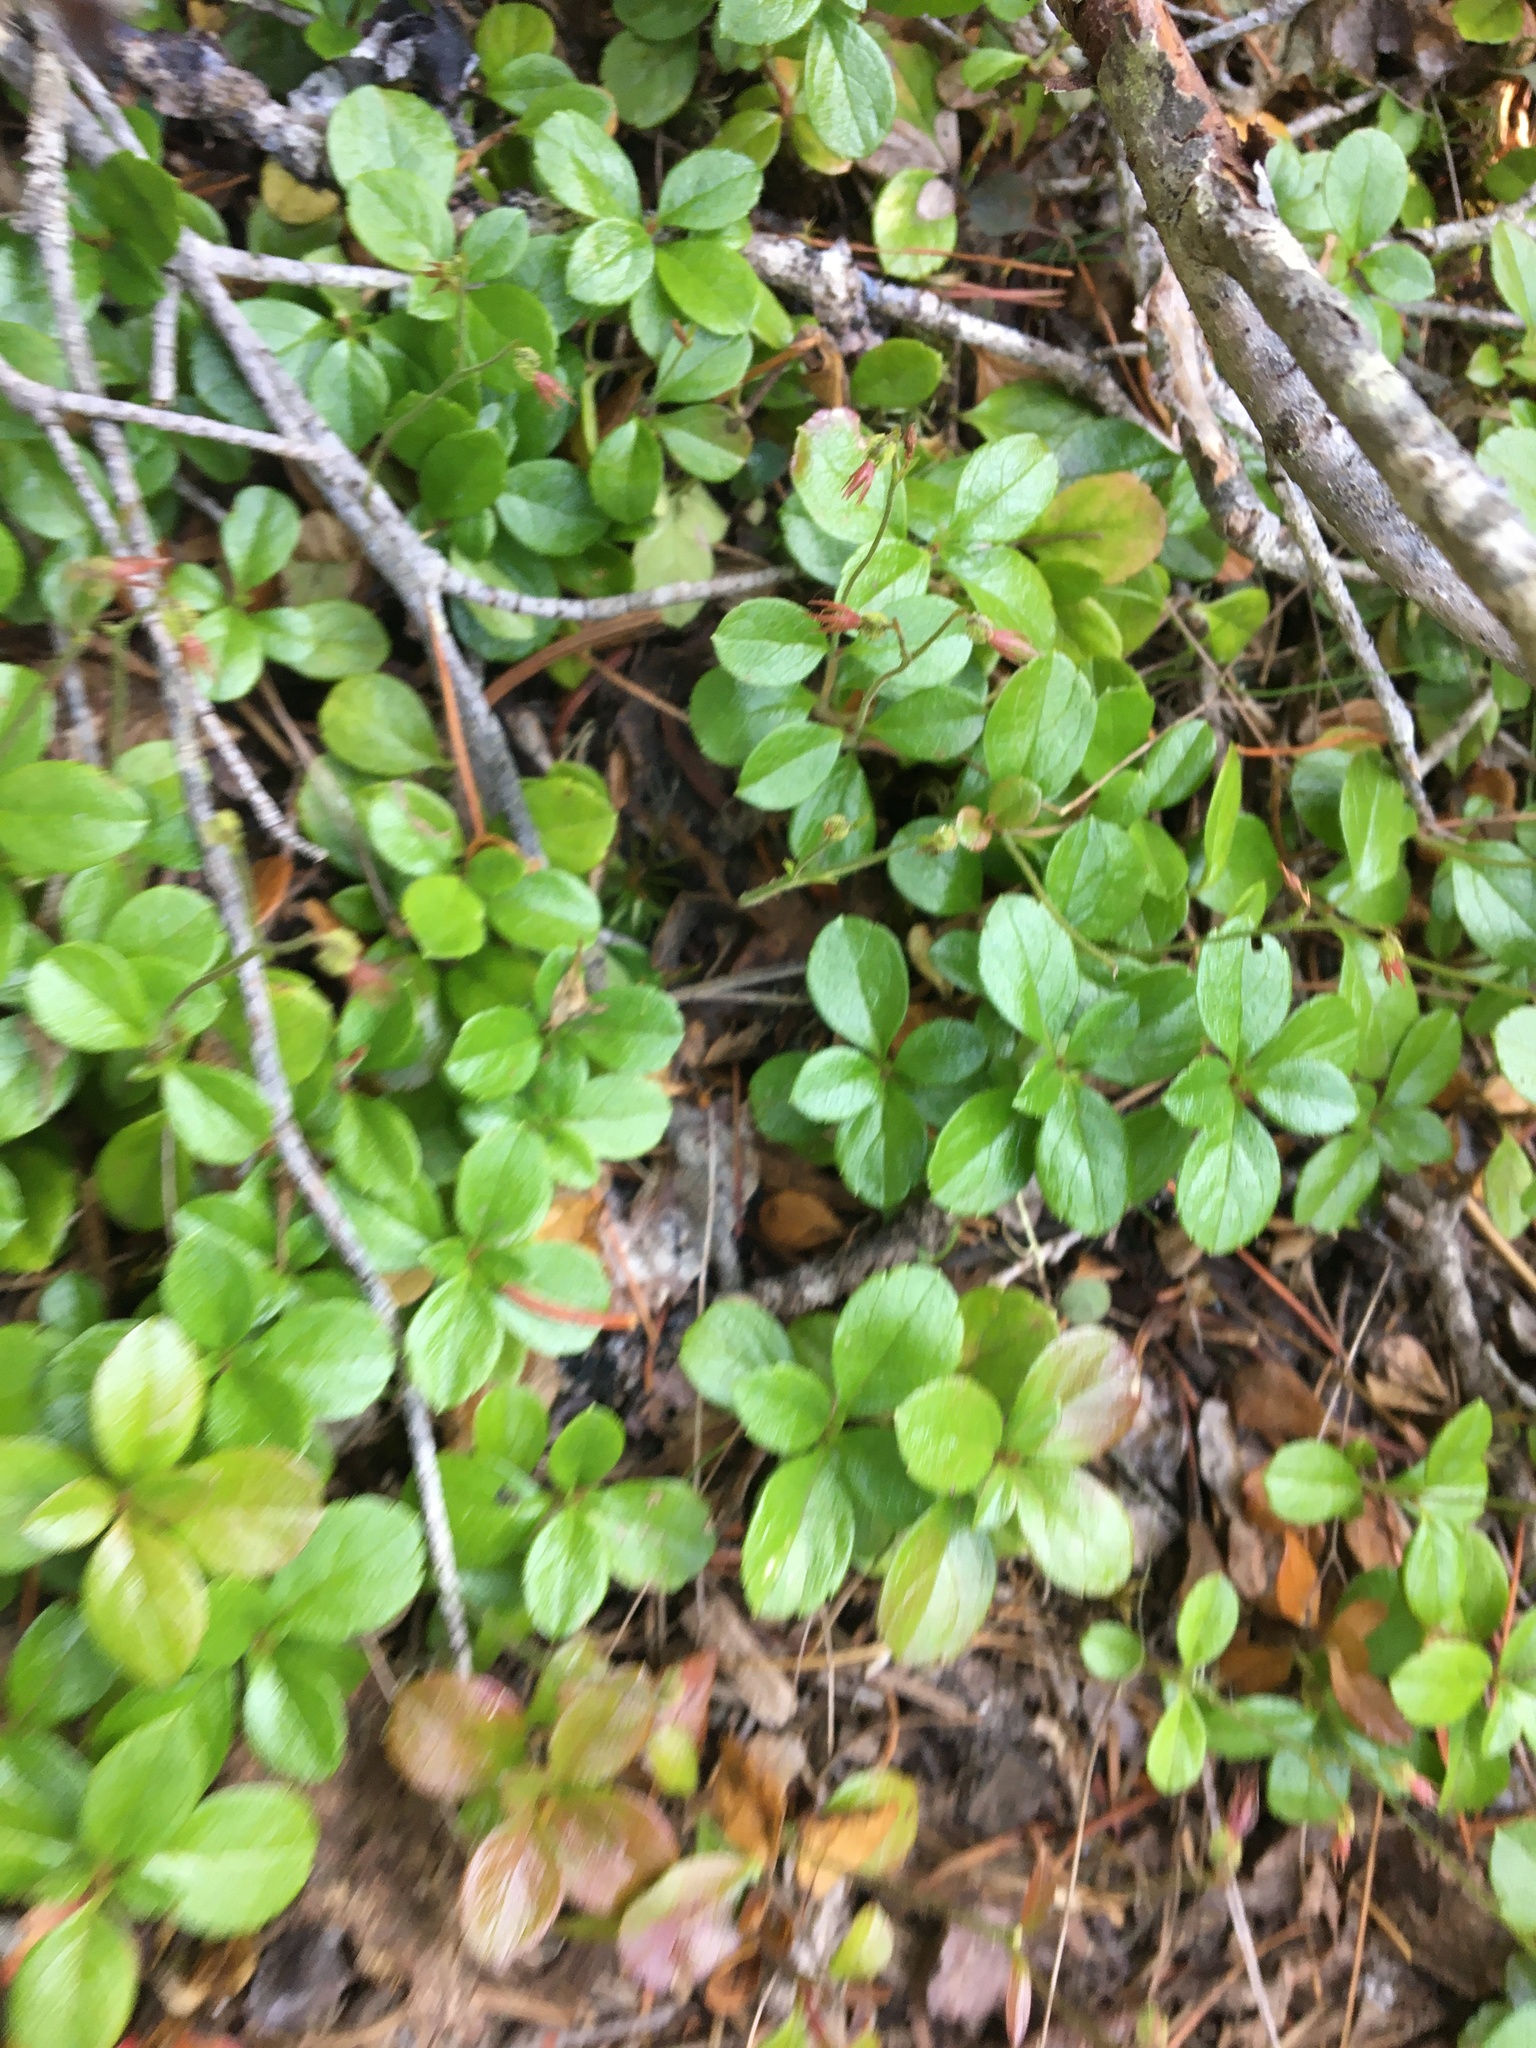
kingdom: Plantae
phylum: Tracheophyta
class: Magnoliopsida
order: Dipsacales
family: Caprifoliaceae
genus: Linnaea
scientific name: Linnaea borealis
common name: Twinflower
